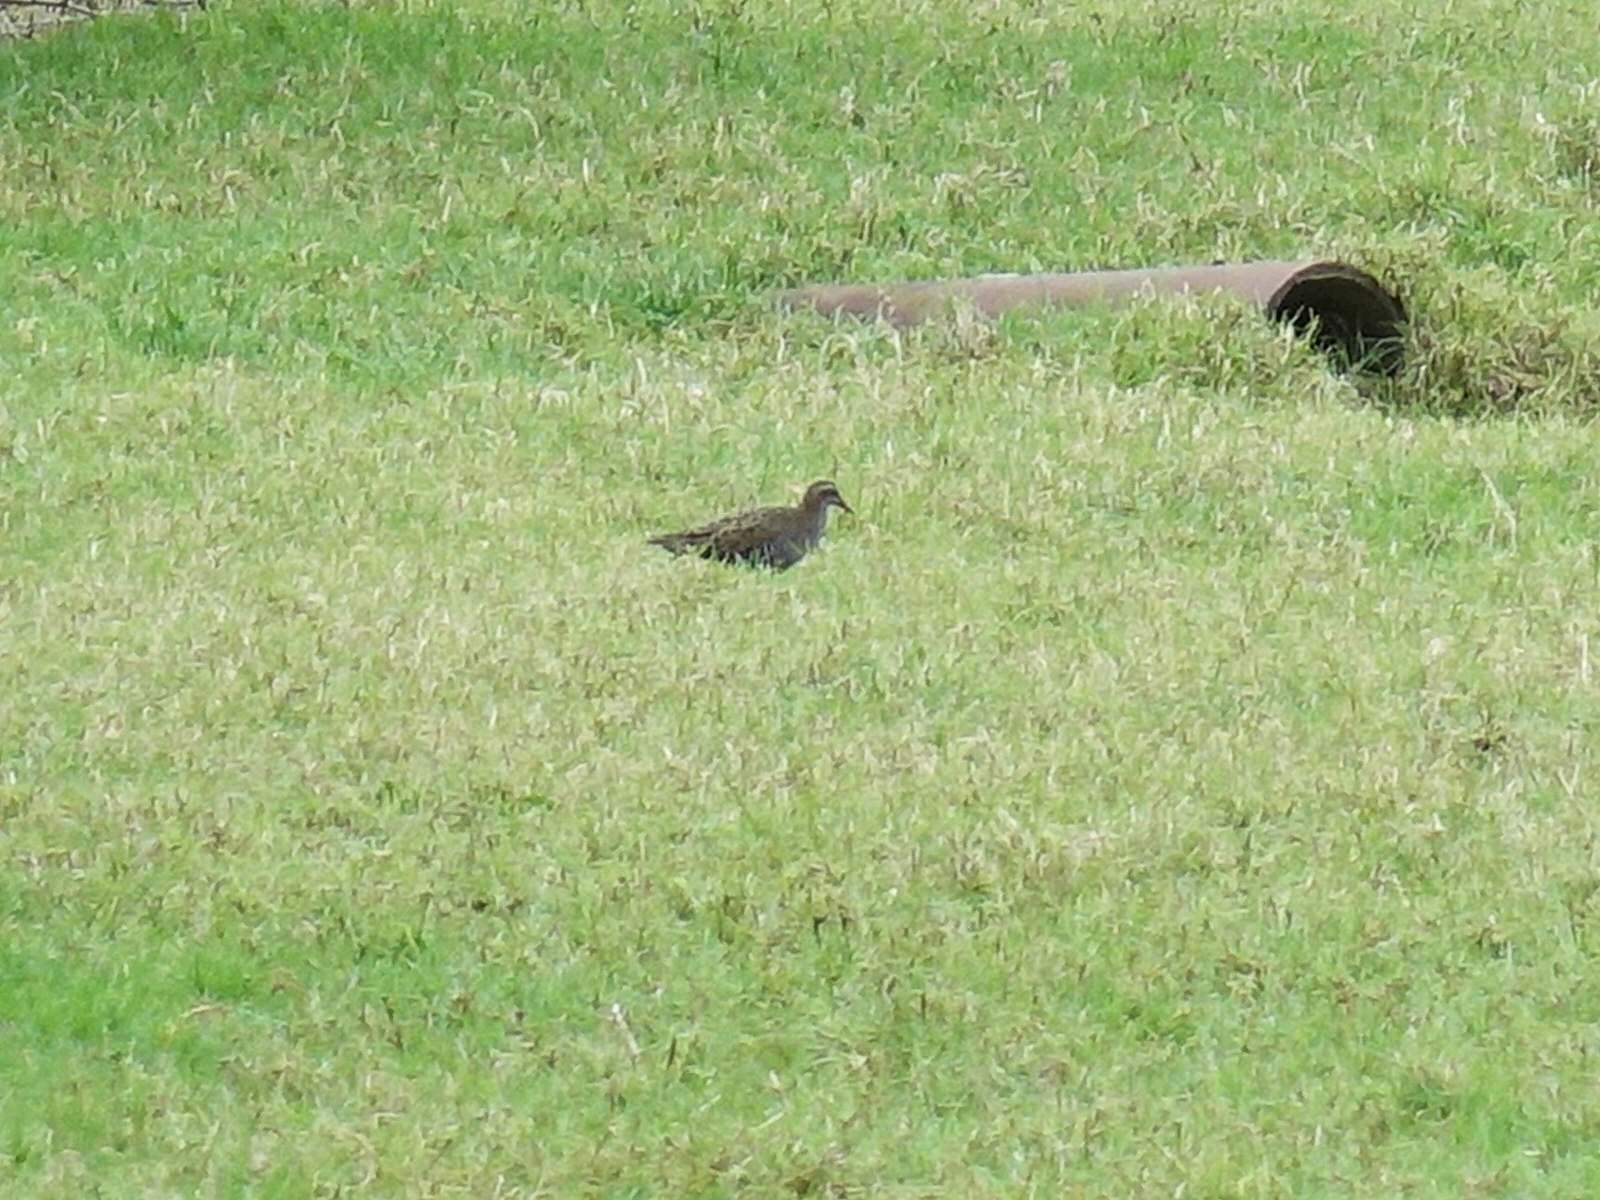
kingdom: Animalia
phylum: Chordata
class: Aves
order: Gruiformes
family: Rallidae
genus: Gallirallus
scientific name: Gallirallus philippensis
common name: Buff-banded rail
